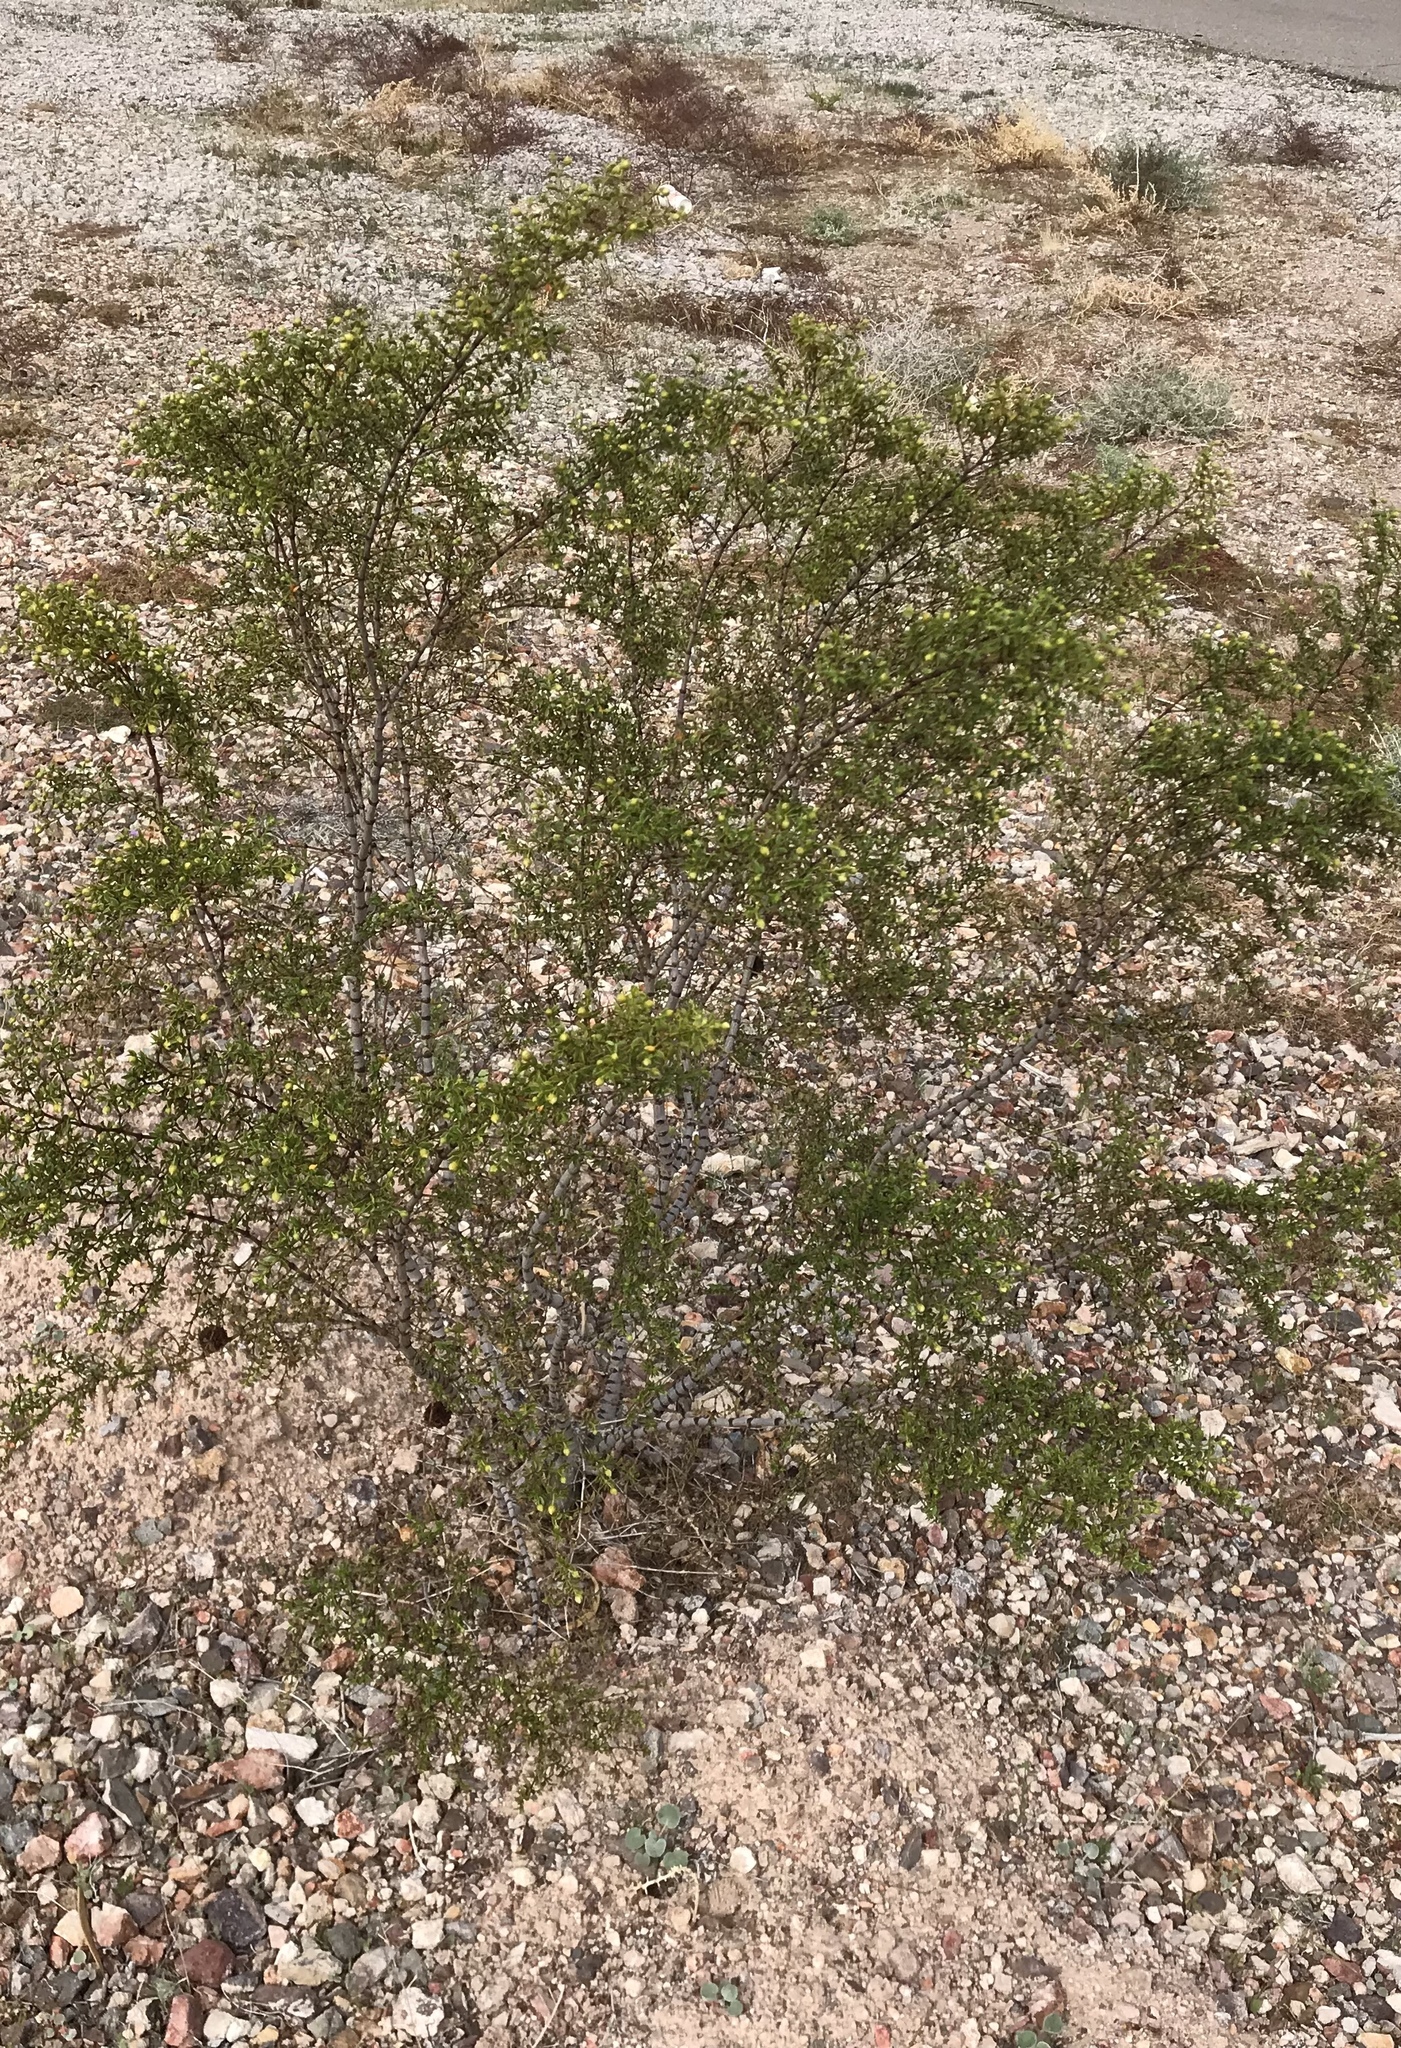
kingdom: Plantae
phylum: Tracheophyta
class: Magnoliopsida
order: Zygophyllales
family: Zygophyllaceae
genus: Larrea
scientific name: Larrea tridentata
